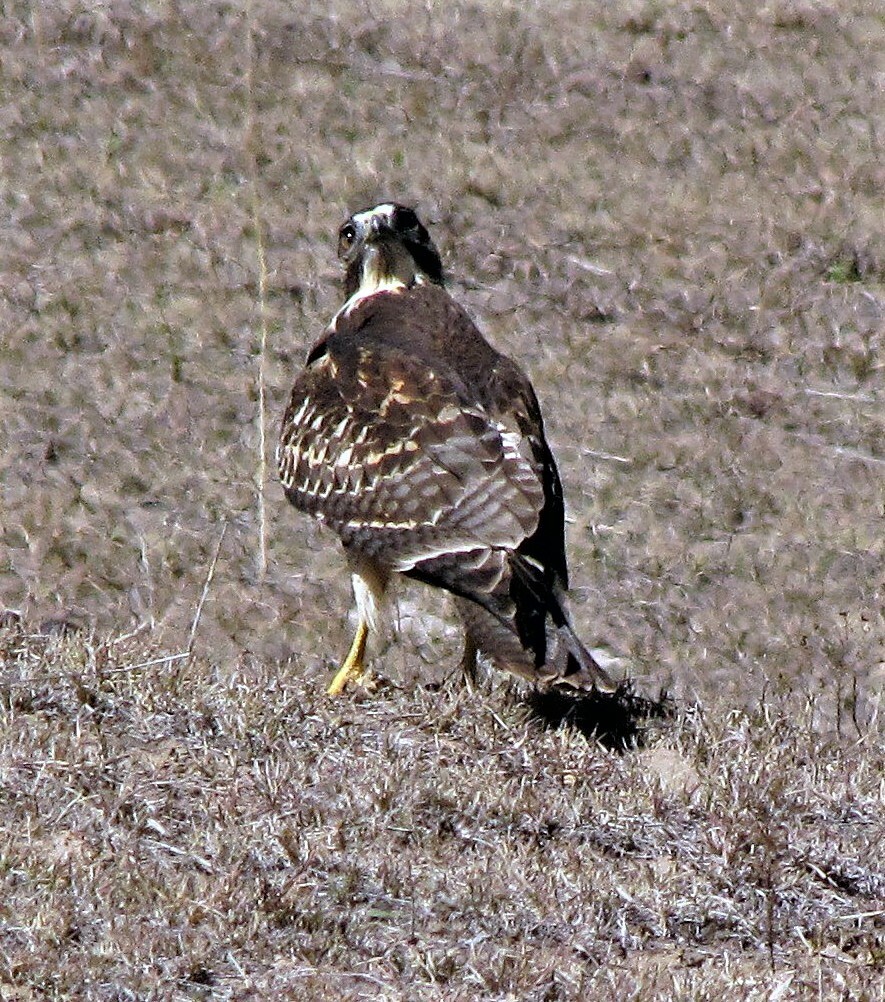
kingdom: Animalia
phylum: Chordata
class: Aves
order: Accipitriformes
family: Accipitridae
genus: Buteo
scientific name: Buteo polyosoma
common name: Variable hawk
